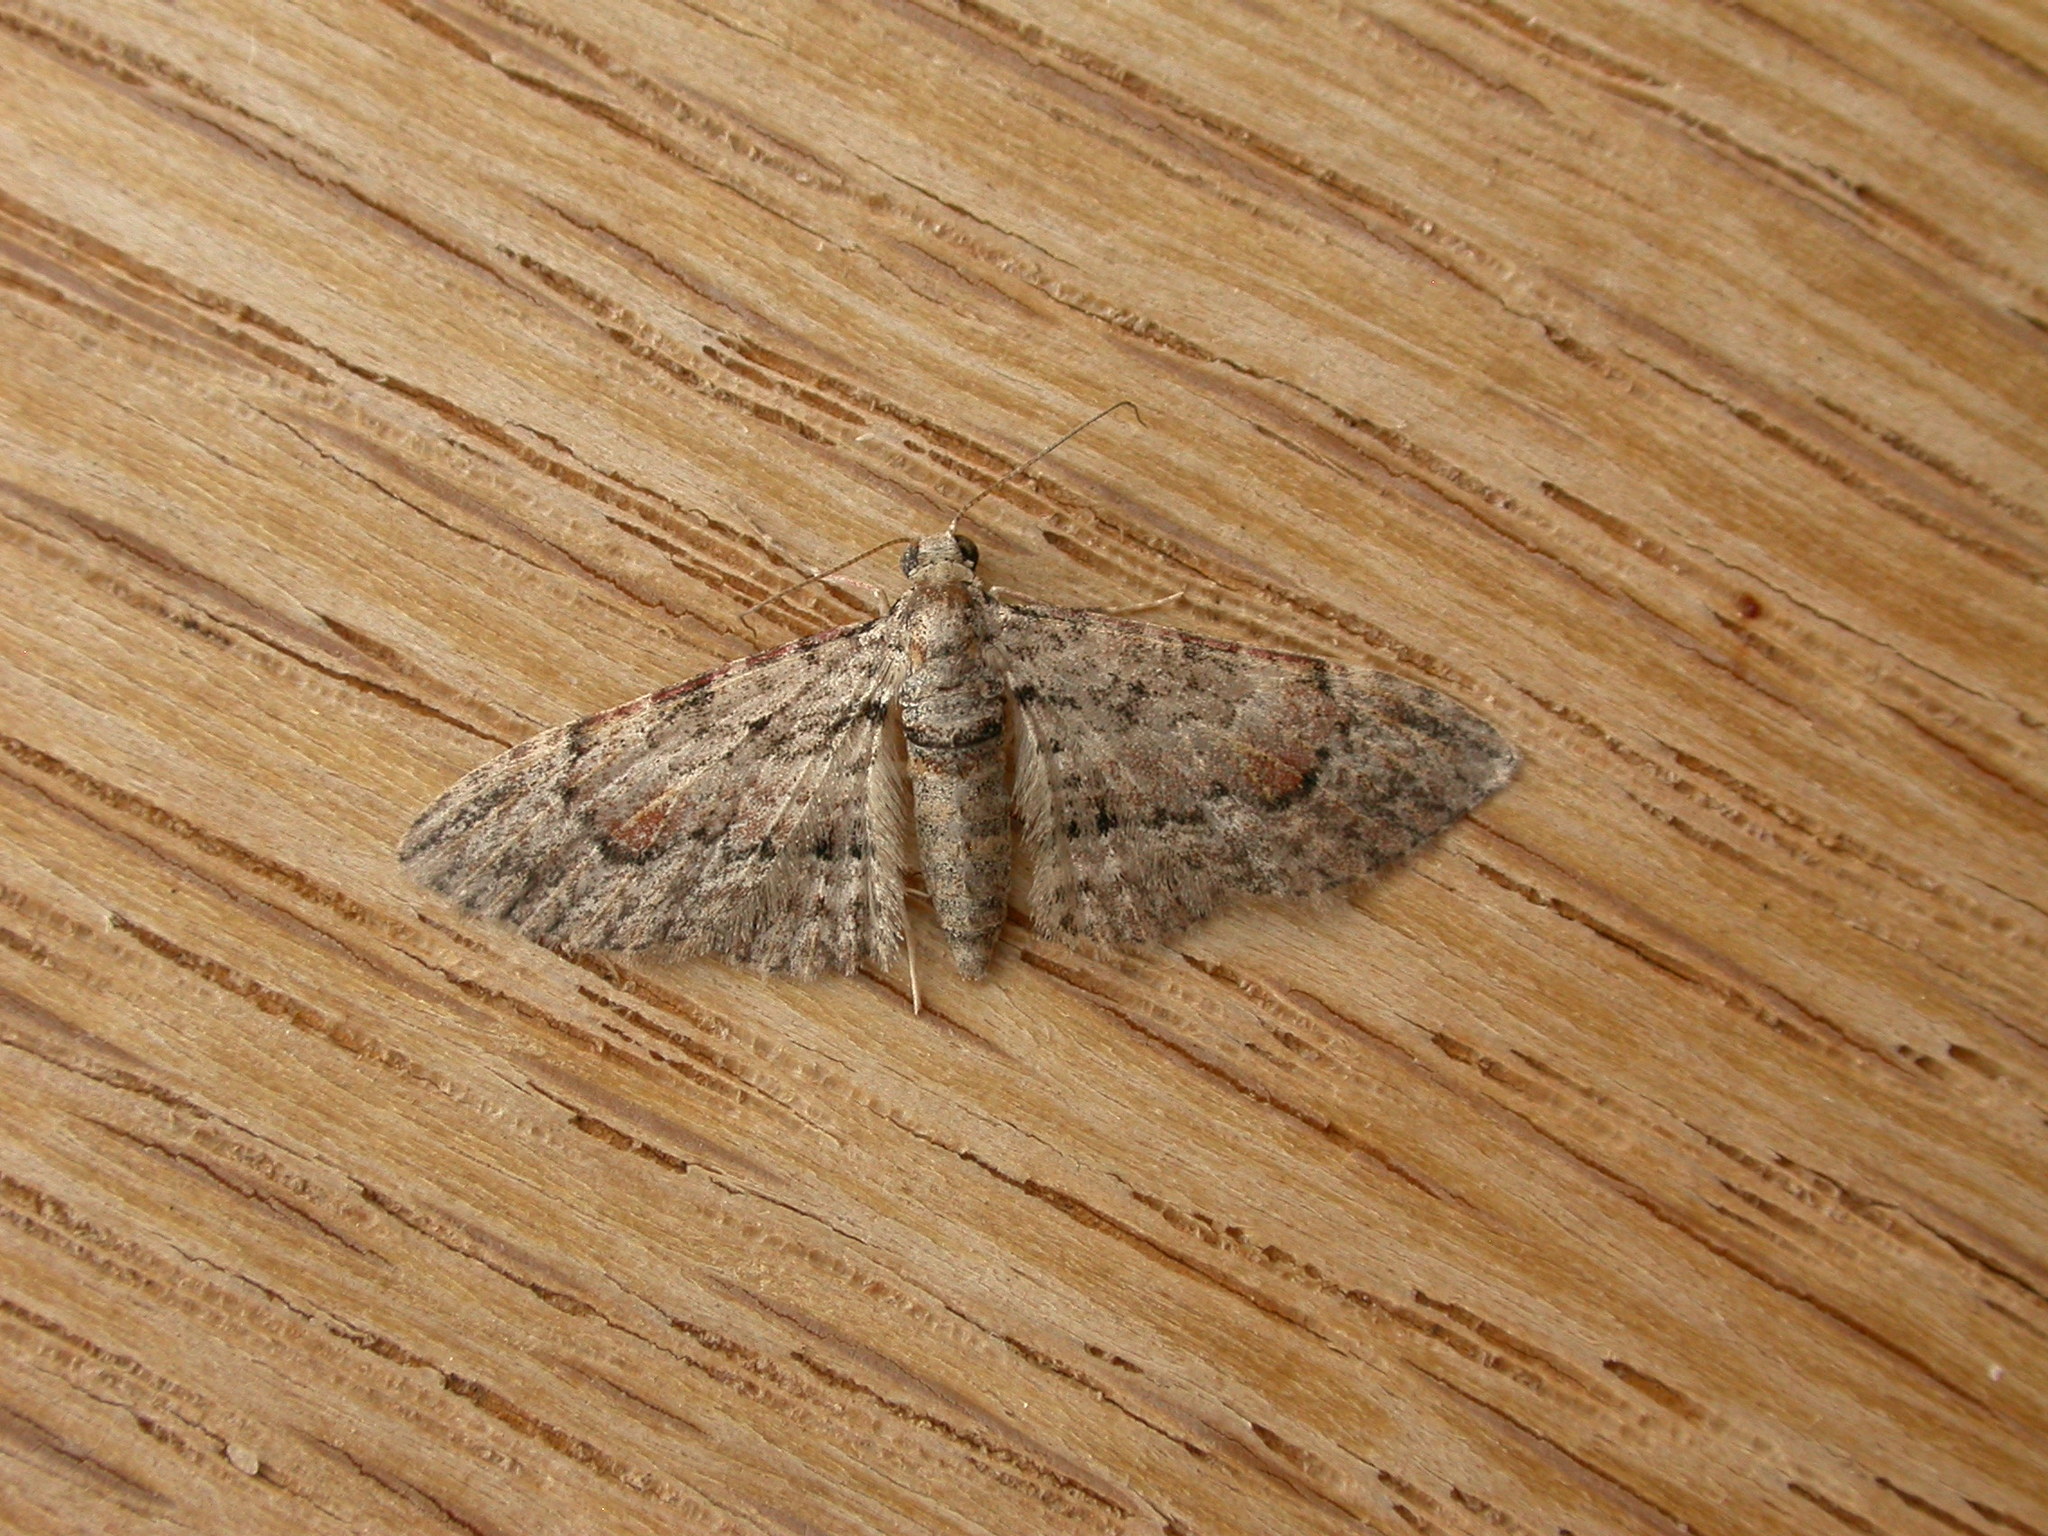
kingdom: Animalia
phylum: Arthropoda
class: Insecta
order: Lepidoptera
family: Geometridae
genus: Chloroclystis
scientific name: Chloroclystis insigillata
